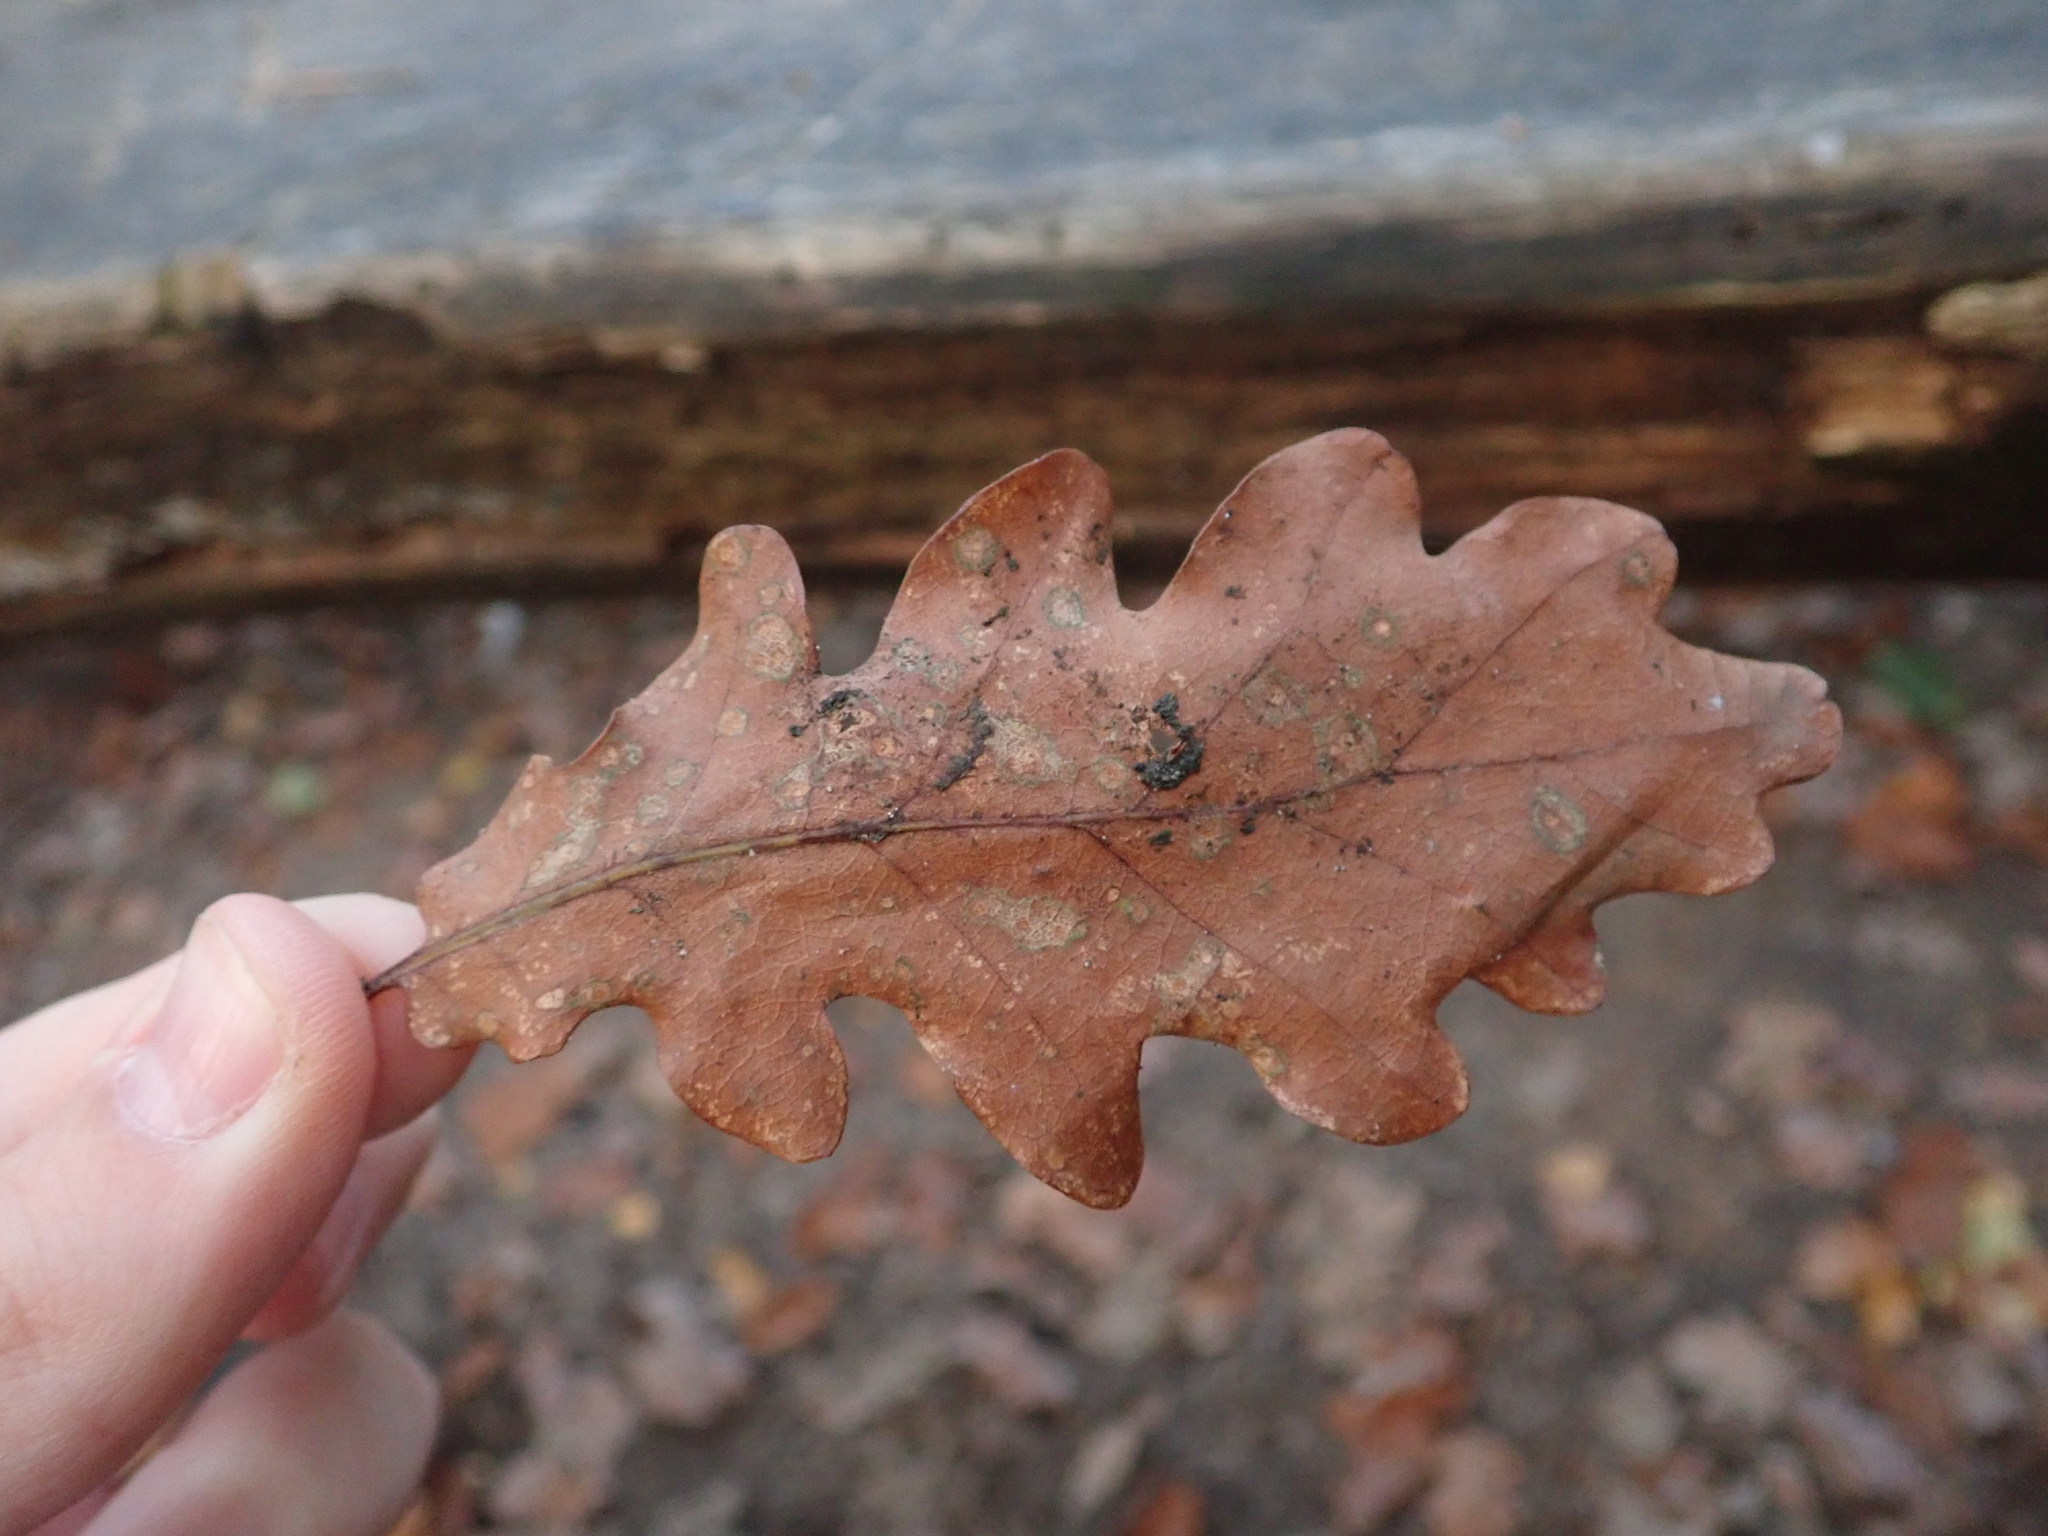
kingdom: Plantae
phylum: Tracheophyta
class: Magnoliopsida
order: Fagales
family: Fagaceae
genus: Quercus
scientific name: Quercus robur
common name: Pedunculate oak
